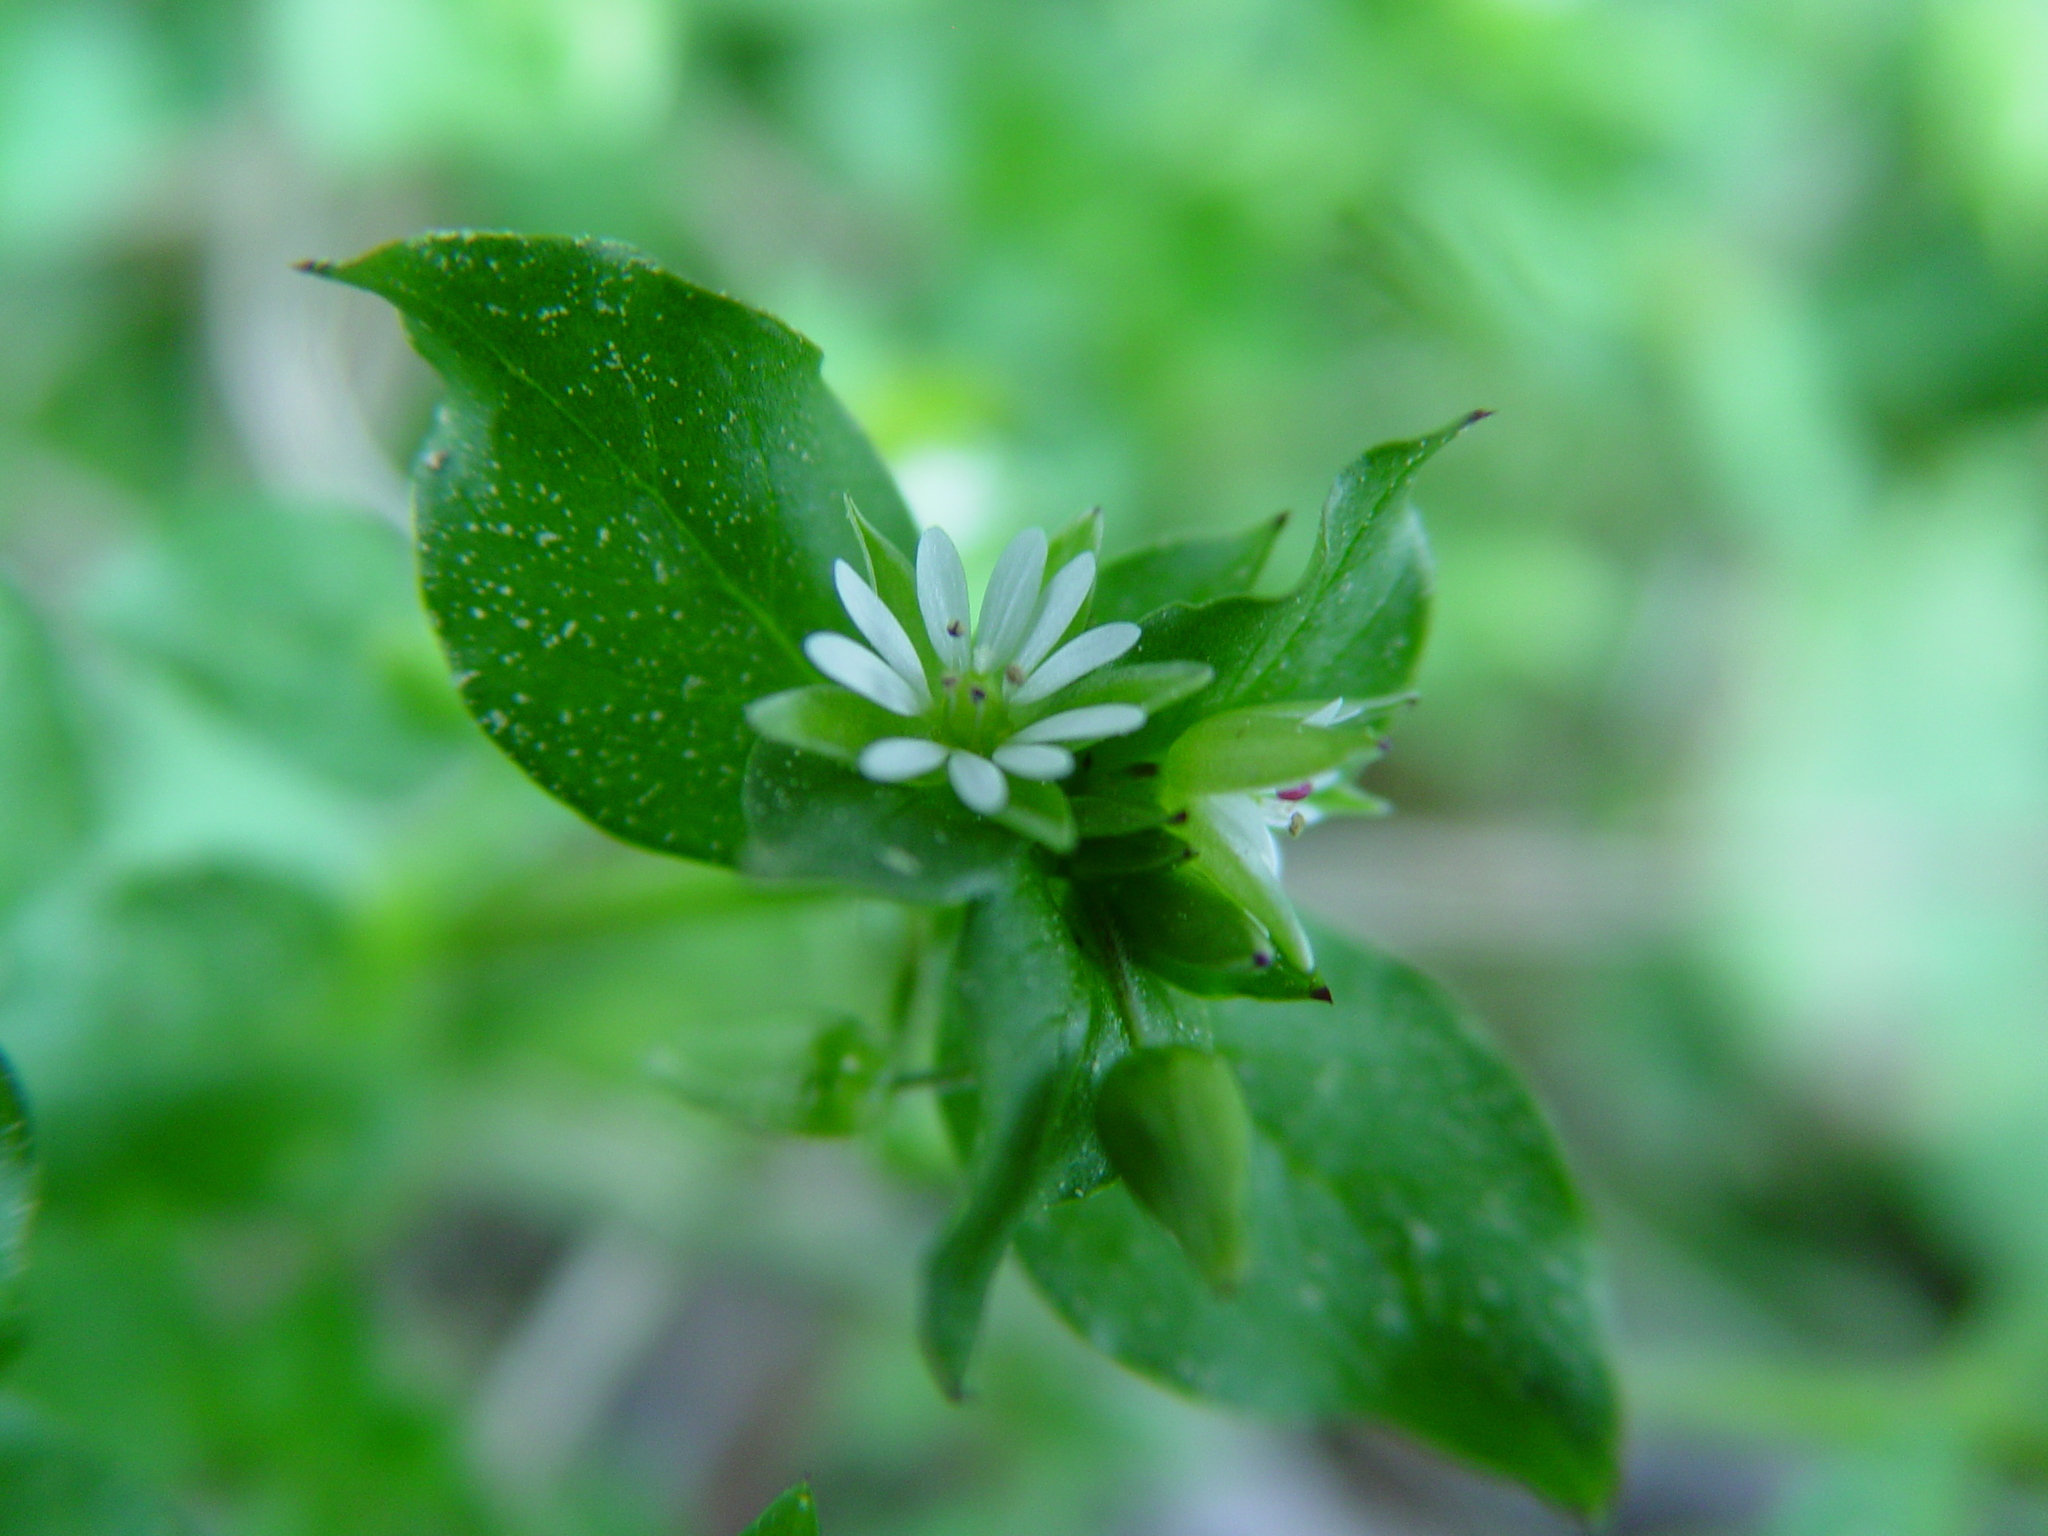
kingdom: Plantae
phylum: Tracheophyta
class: Magnoliopsida
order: Caryophyllales
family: Caryophyllaceae
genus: Stellaria
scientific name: Stellaria media
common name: Common chickweed
